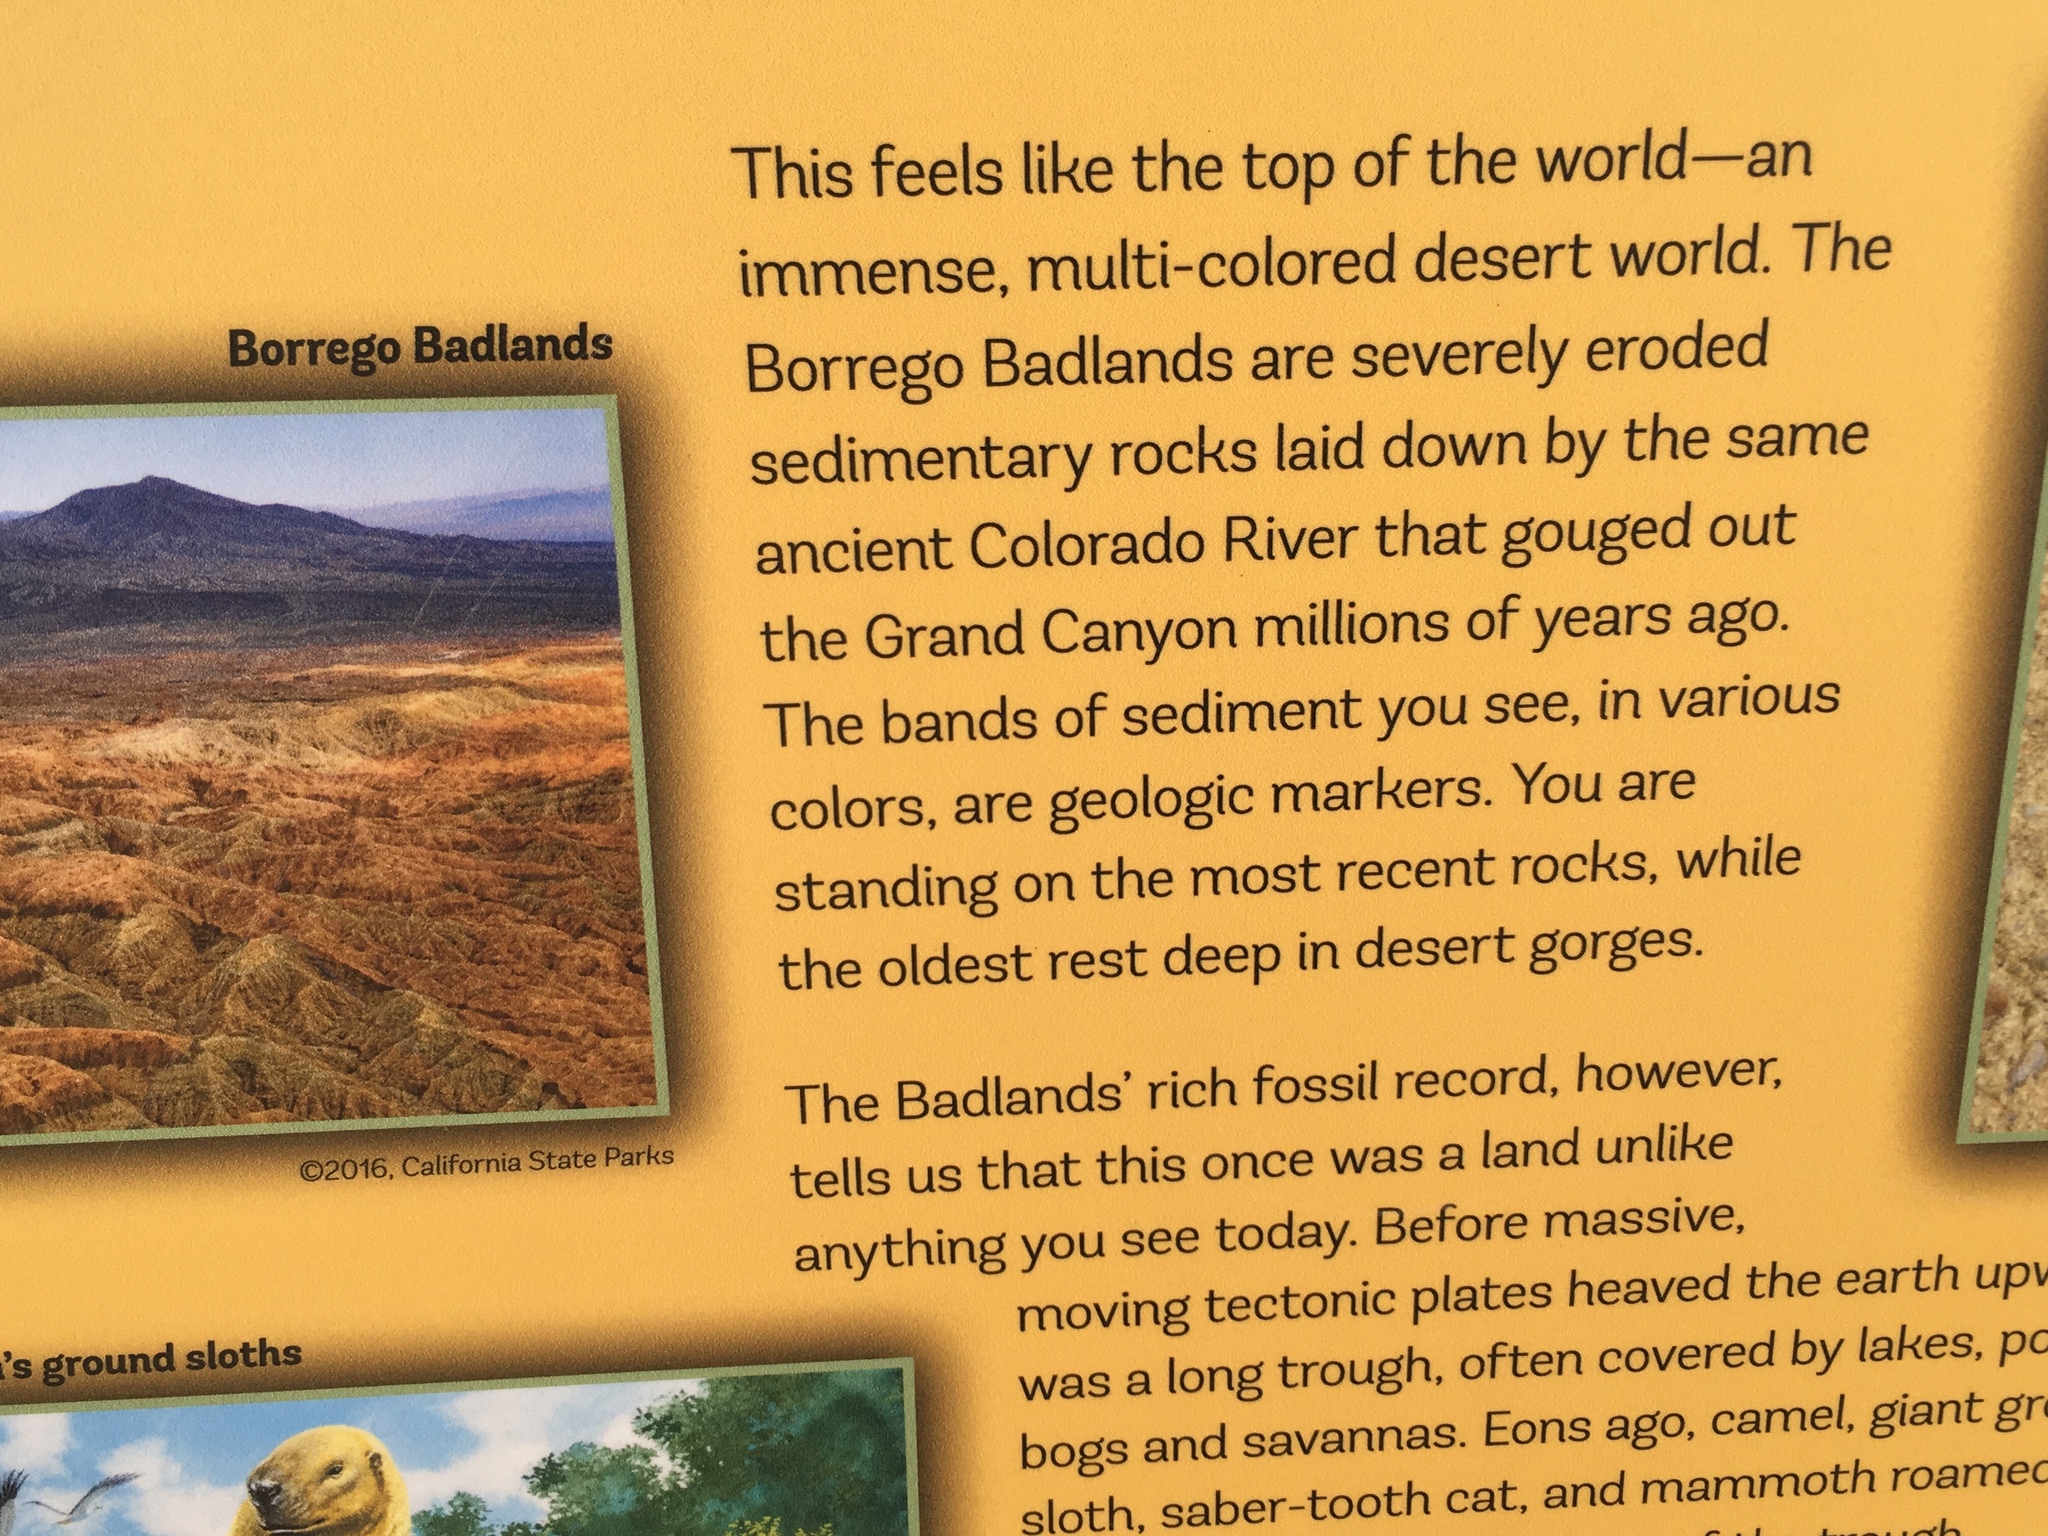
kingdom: Plantae
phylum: Tracheophyta
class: Magnoliopsida
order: Caryophyllales
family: Polygonaceae
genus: Eriogonum
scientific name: Eriogonum deflexum
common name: Skeleton-weed
